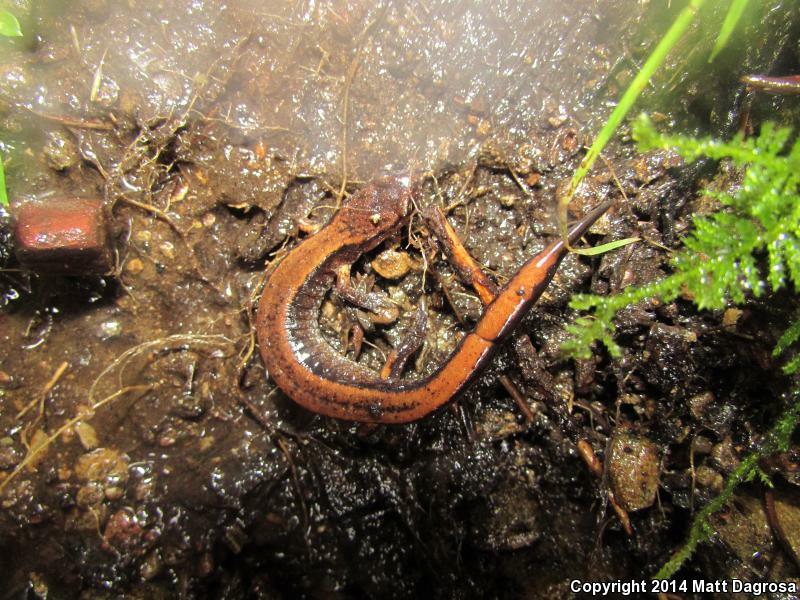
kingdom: Animalia
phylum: Chordata
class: Amphibia
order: Caudata
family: Plethodontidae
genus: Plethodon
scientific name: Plethodon vehiculum
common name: Western red-backed salamander
